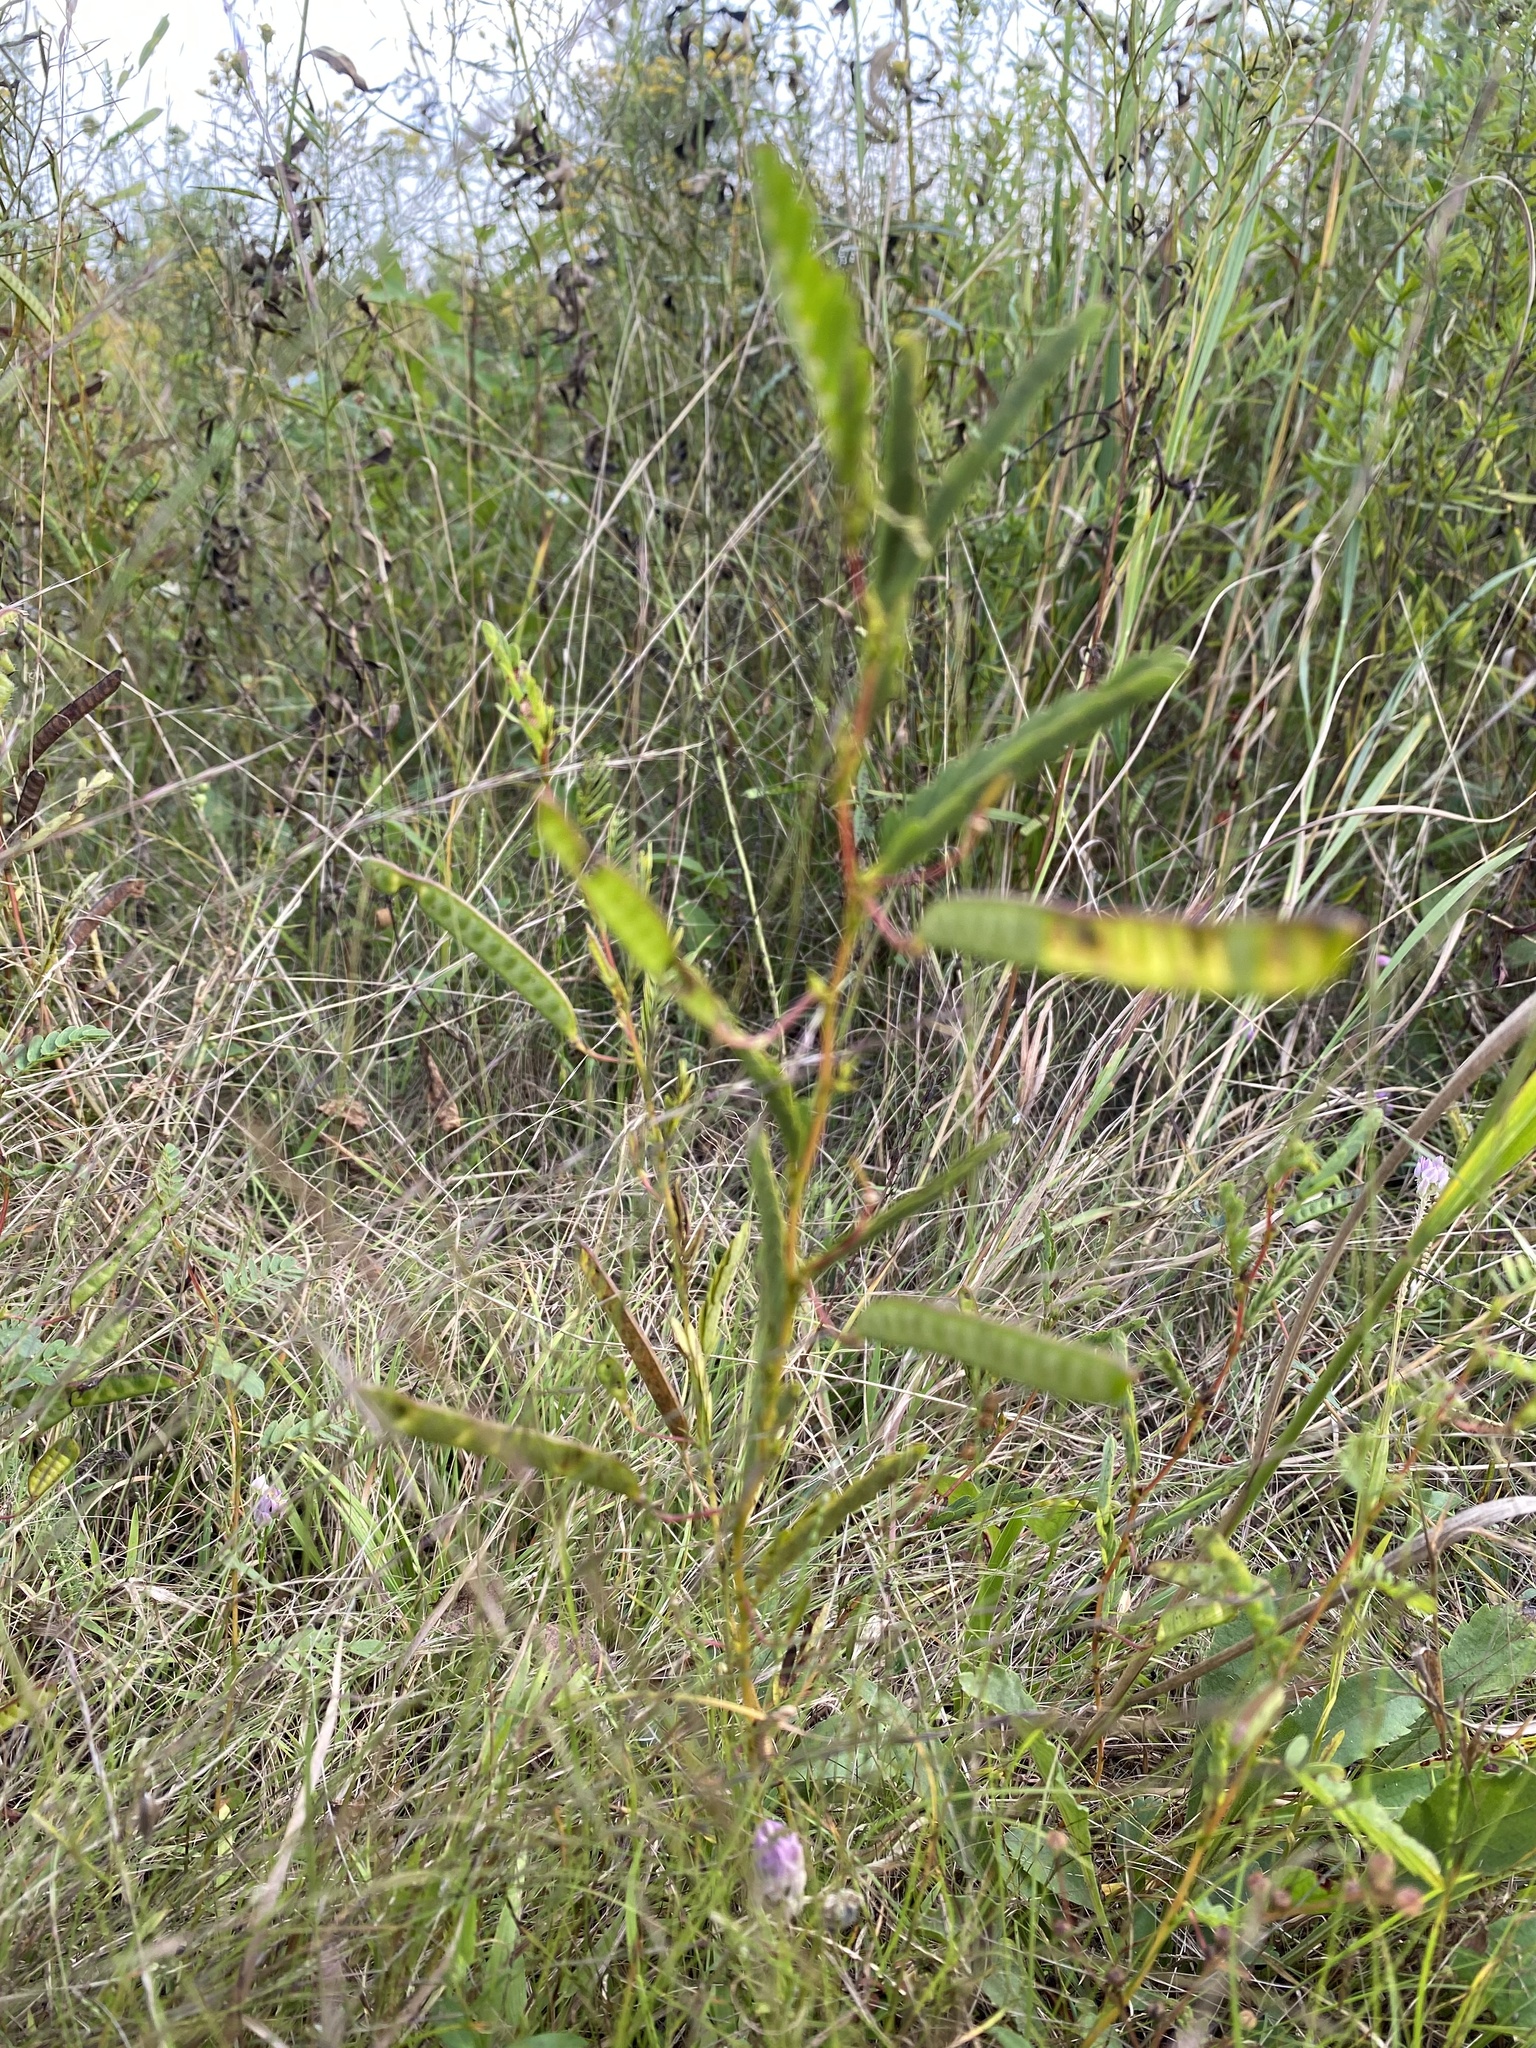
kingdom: Plantae
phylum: Tracheophyta
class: Magnoliopsida
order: Fabales
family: Fabaceae
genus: Chamaecrista
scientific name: Chamaecrista fasciculata
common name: Golden cassia
